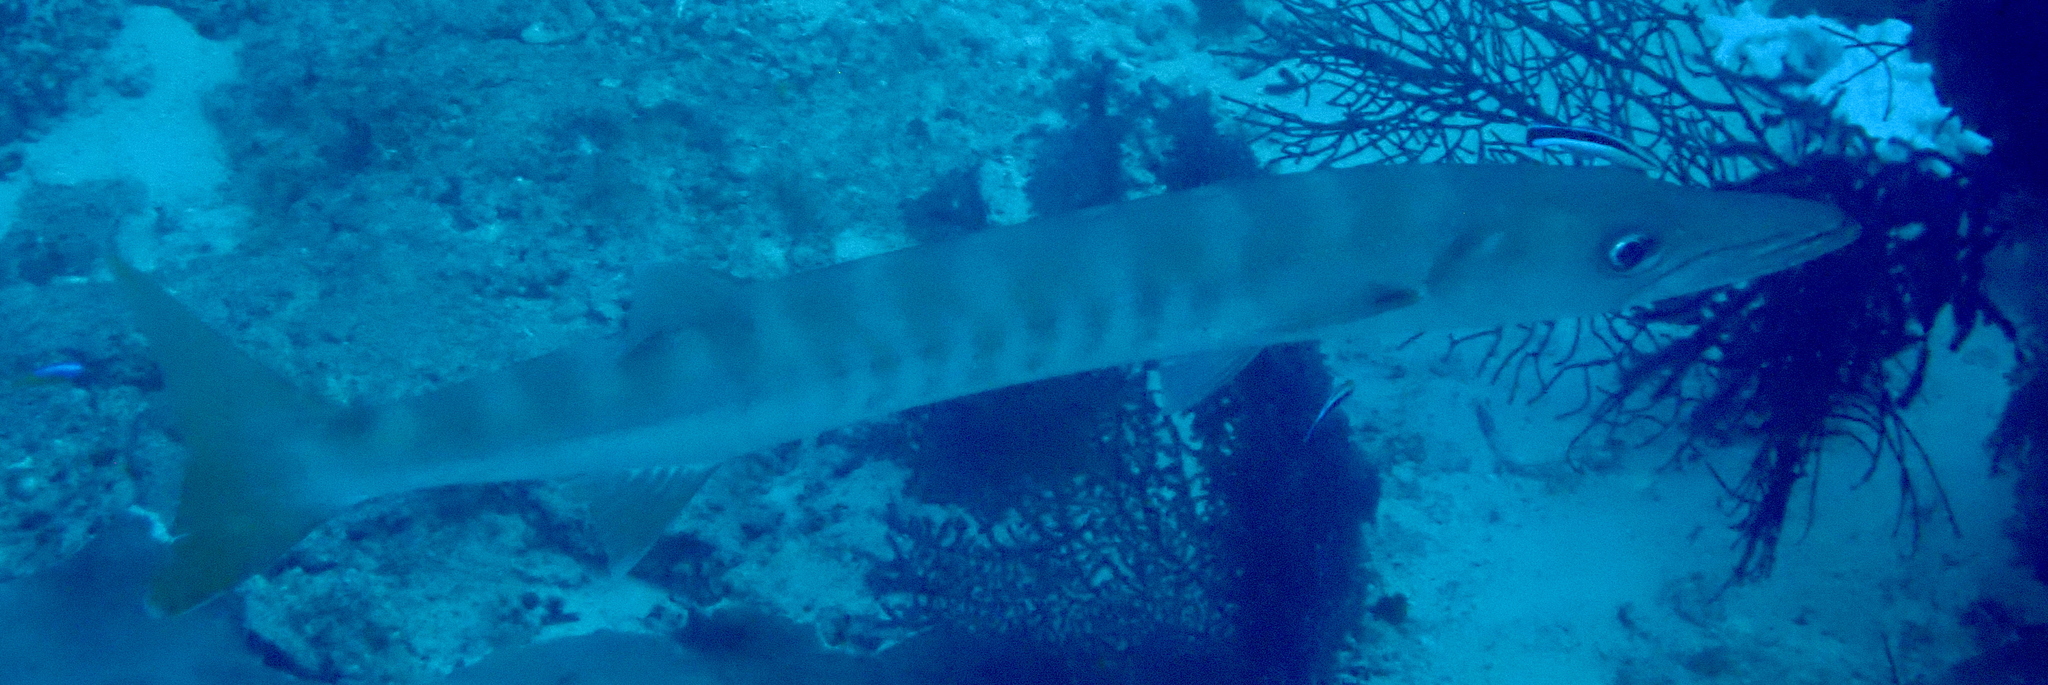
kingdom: Animalia
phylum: Chordata
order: Perciformes
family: Sphyraenidae
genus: Sphyraena
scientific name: Sphyraena jello
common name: Pickhandle barracuda
